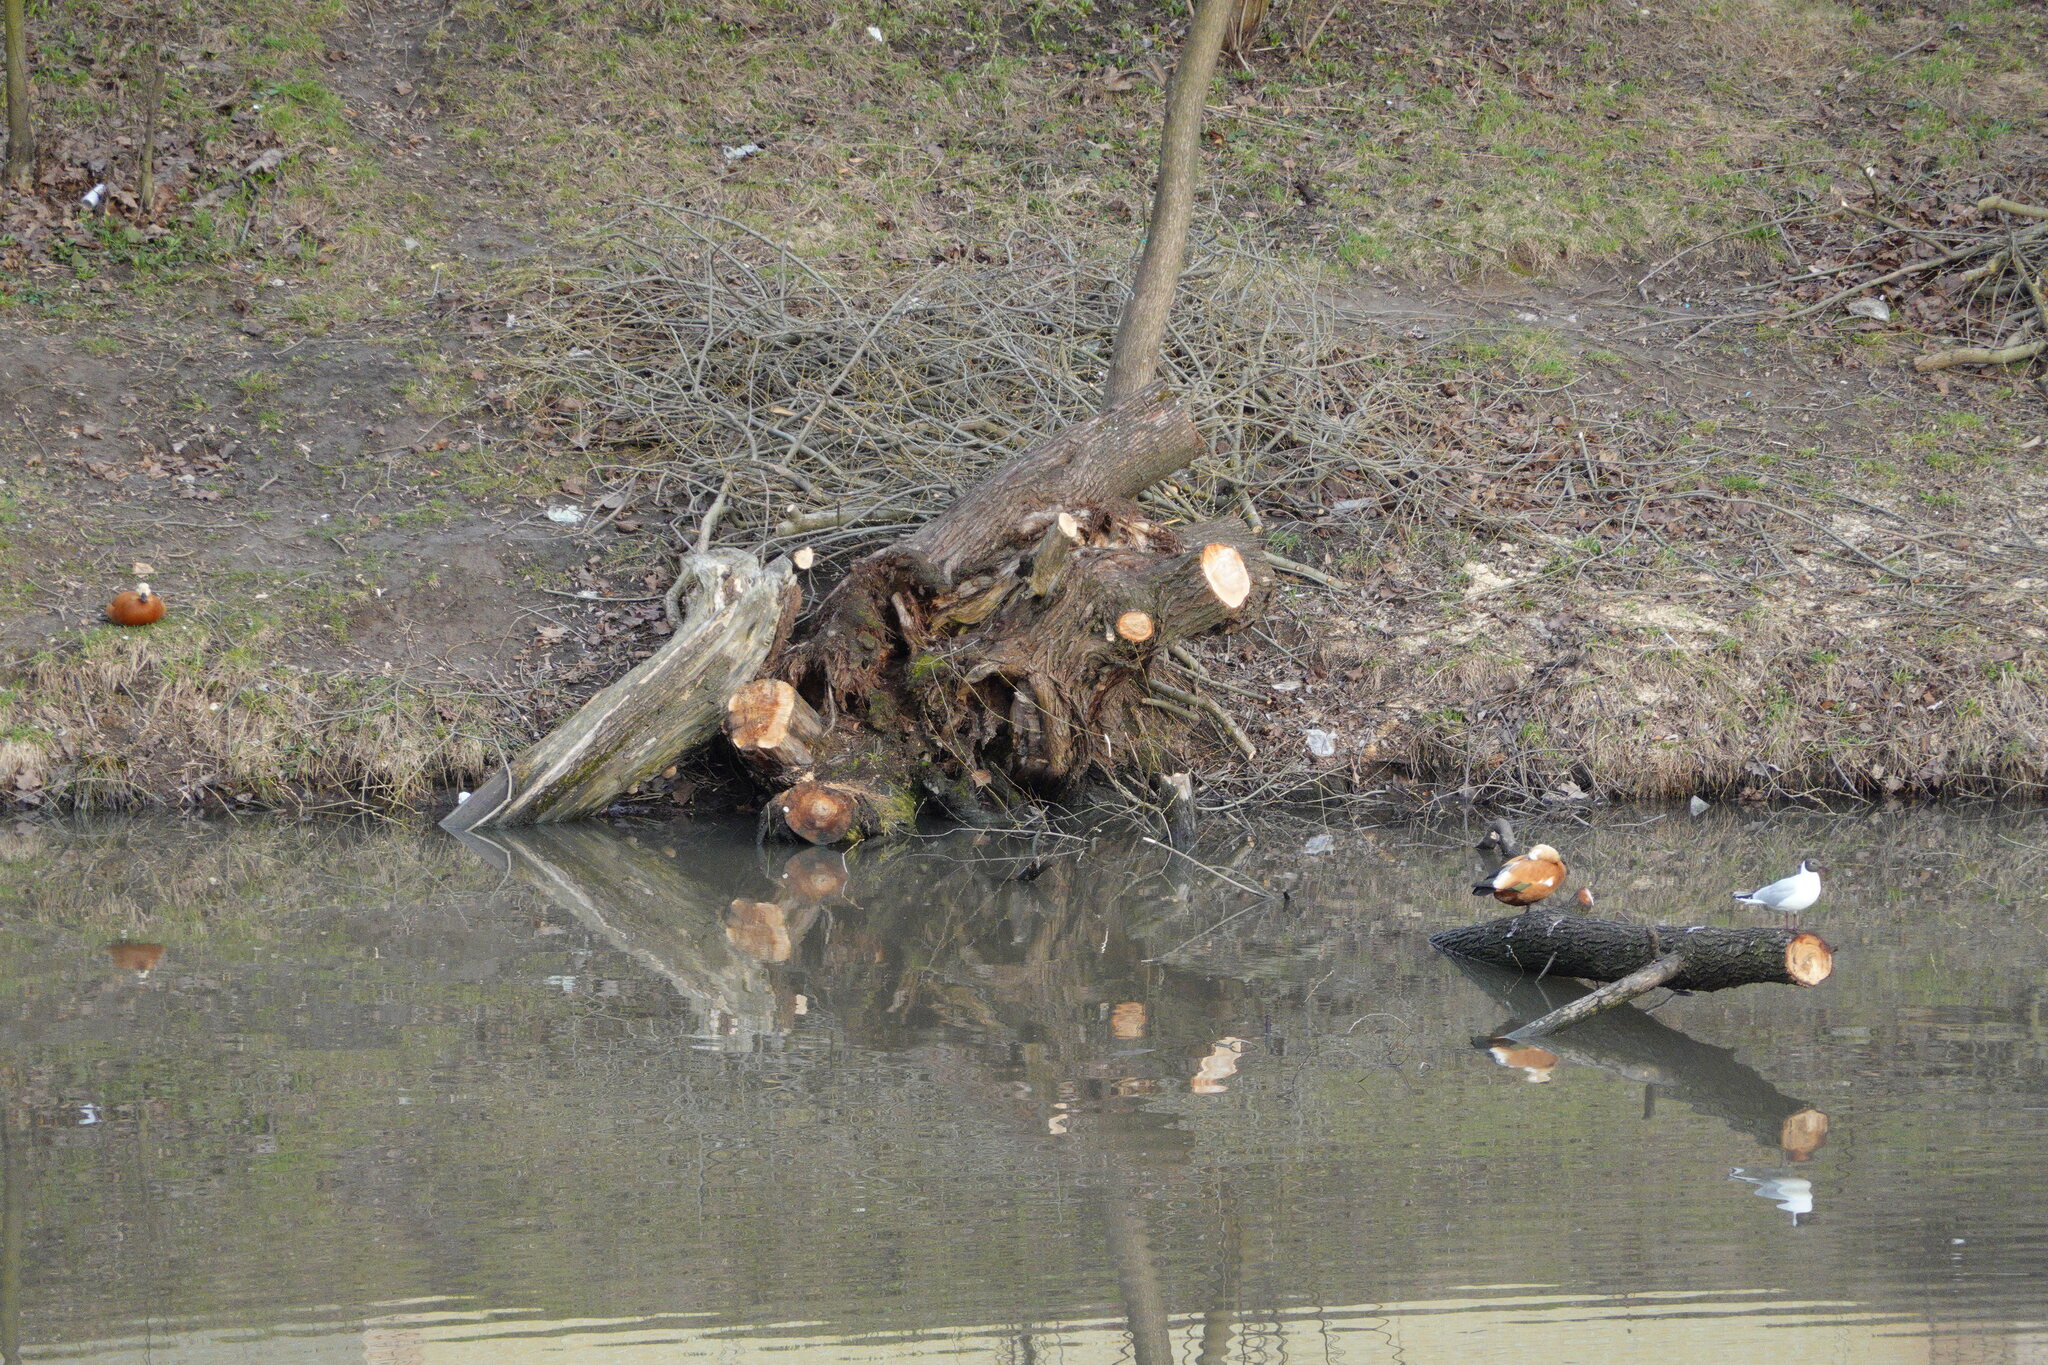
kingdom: Animalia
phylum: Chordata
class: Aves
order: Anseriformes
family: Anatidae
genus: Tadorna
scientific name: Tadorna ferruginea
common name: Ruddy shelduck
